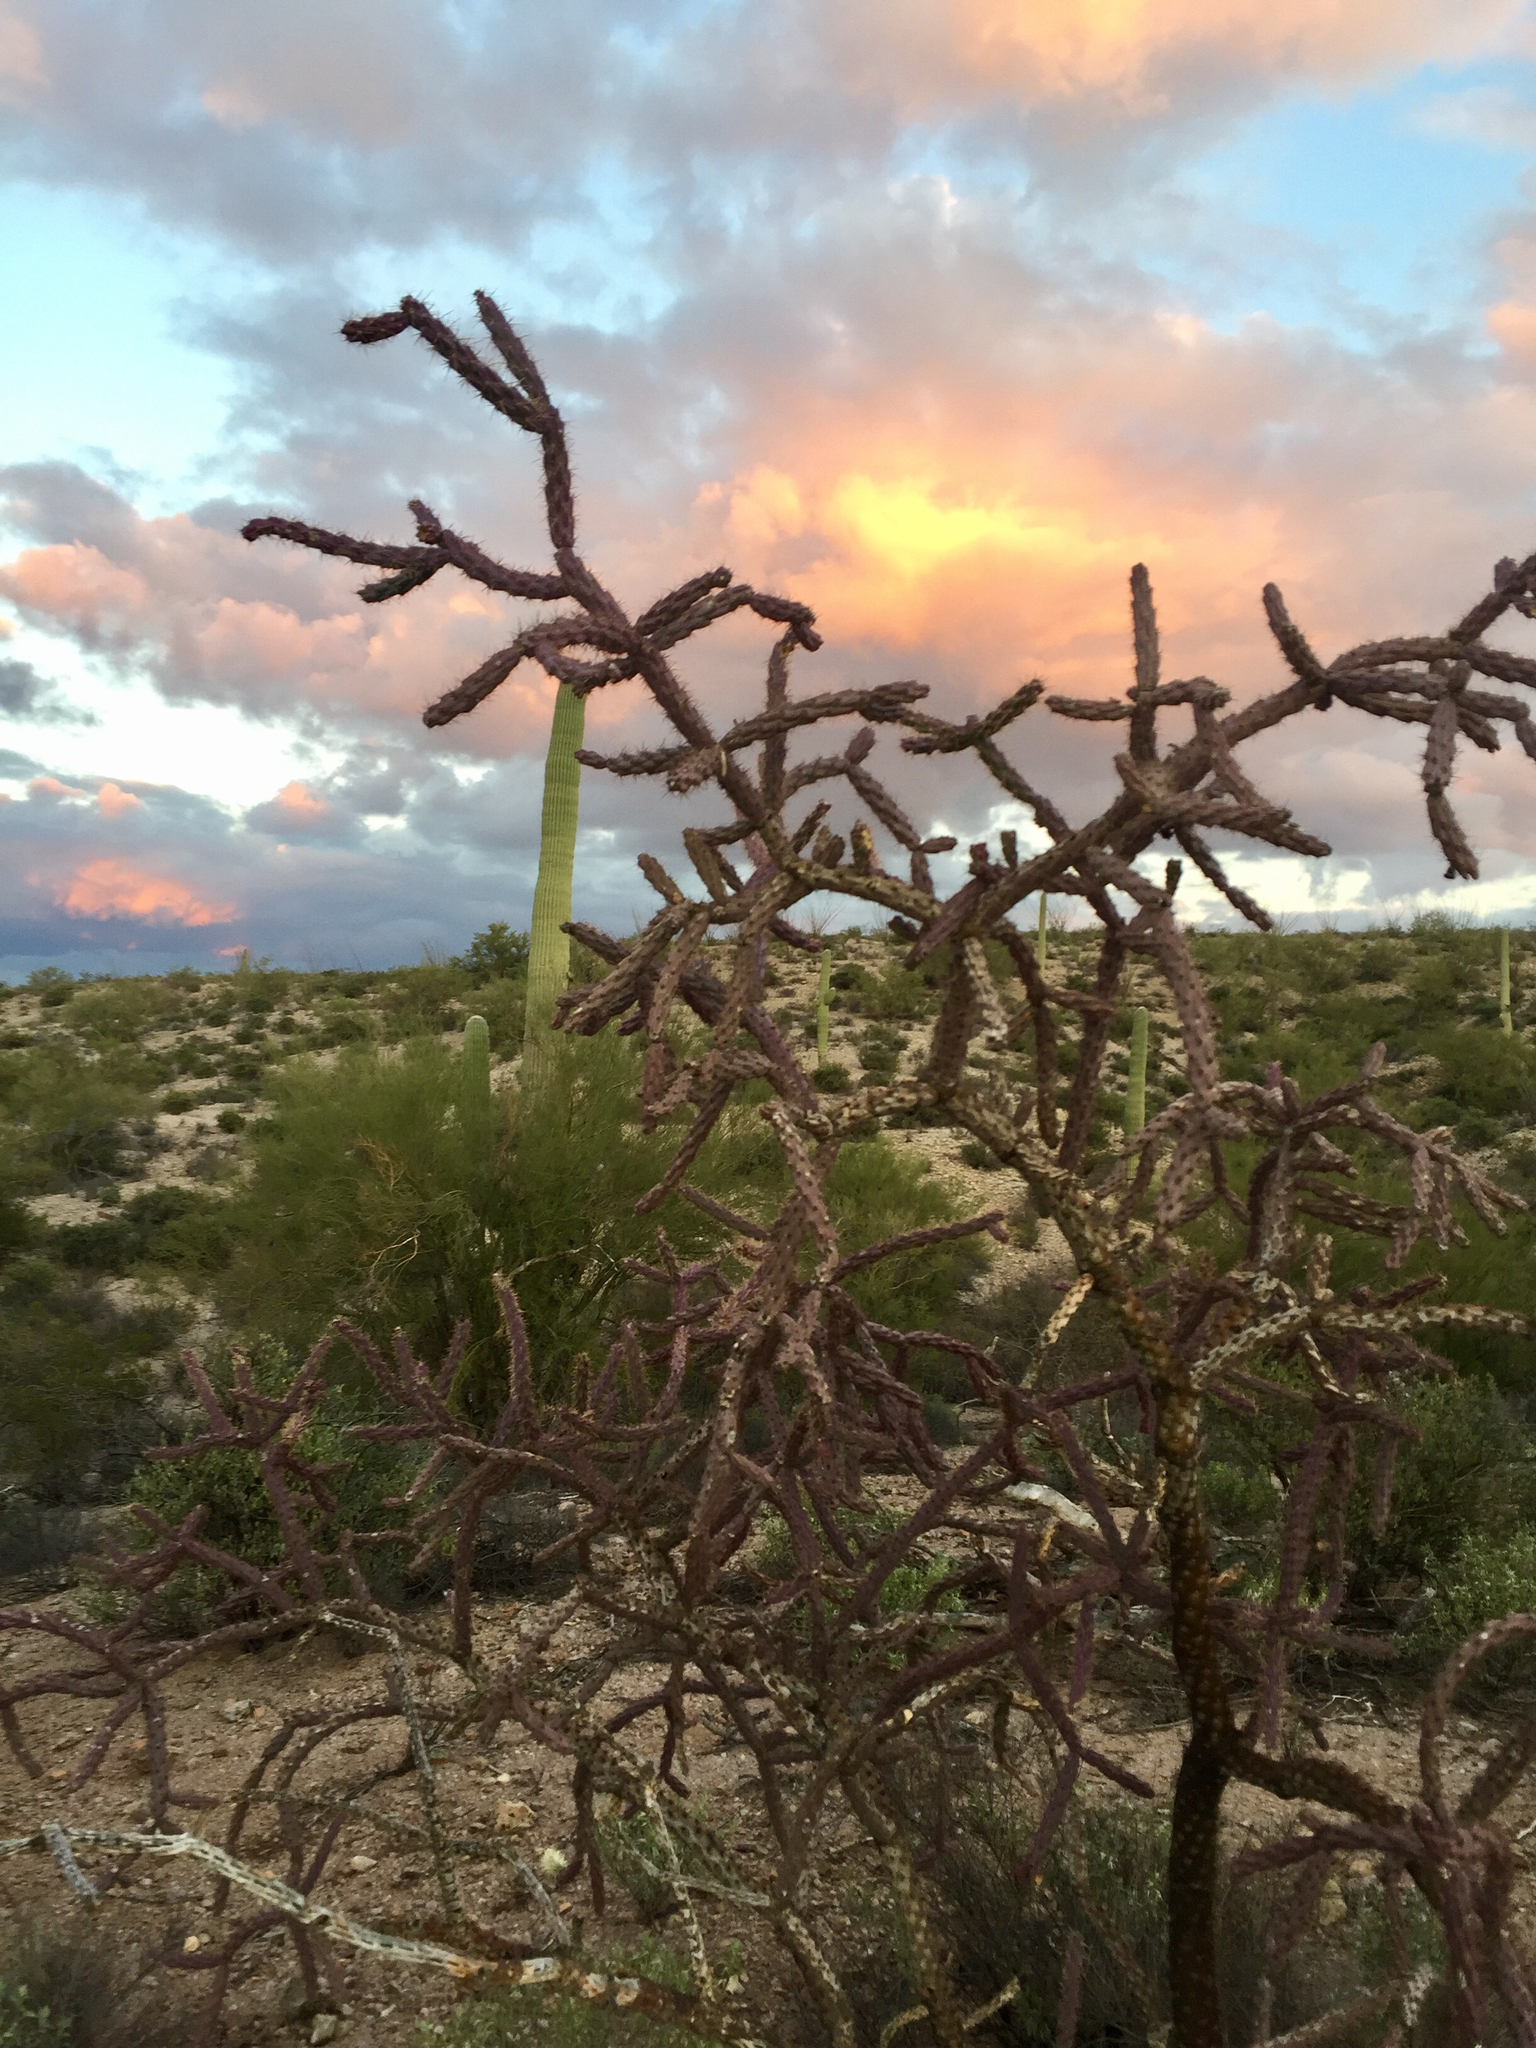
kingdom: Plantae
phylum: Tracheophyta
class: Magnoliopsida
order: Caryophyllales
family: Cactaceae
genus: Cylindropuntia
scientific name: Cylindropuntia thurberi
